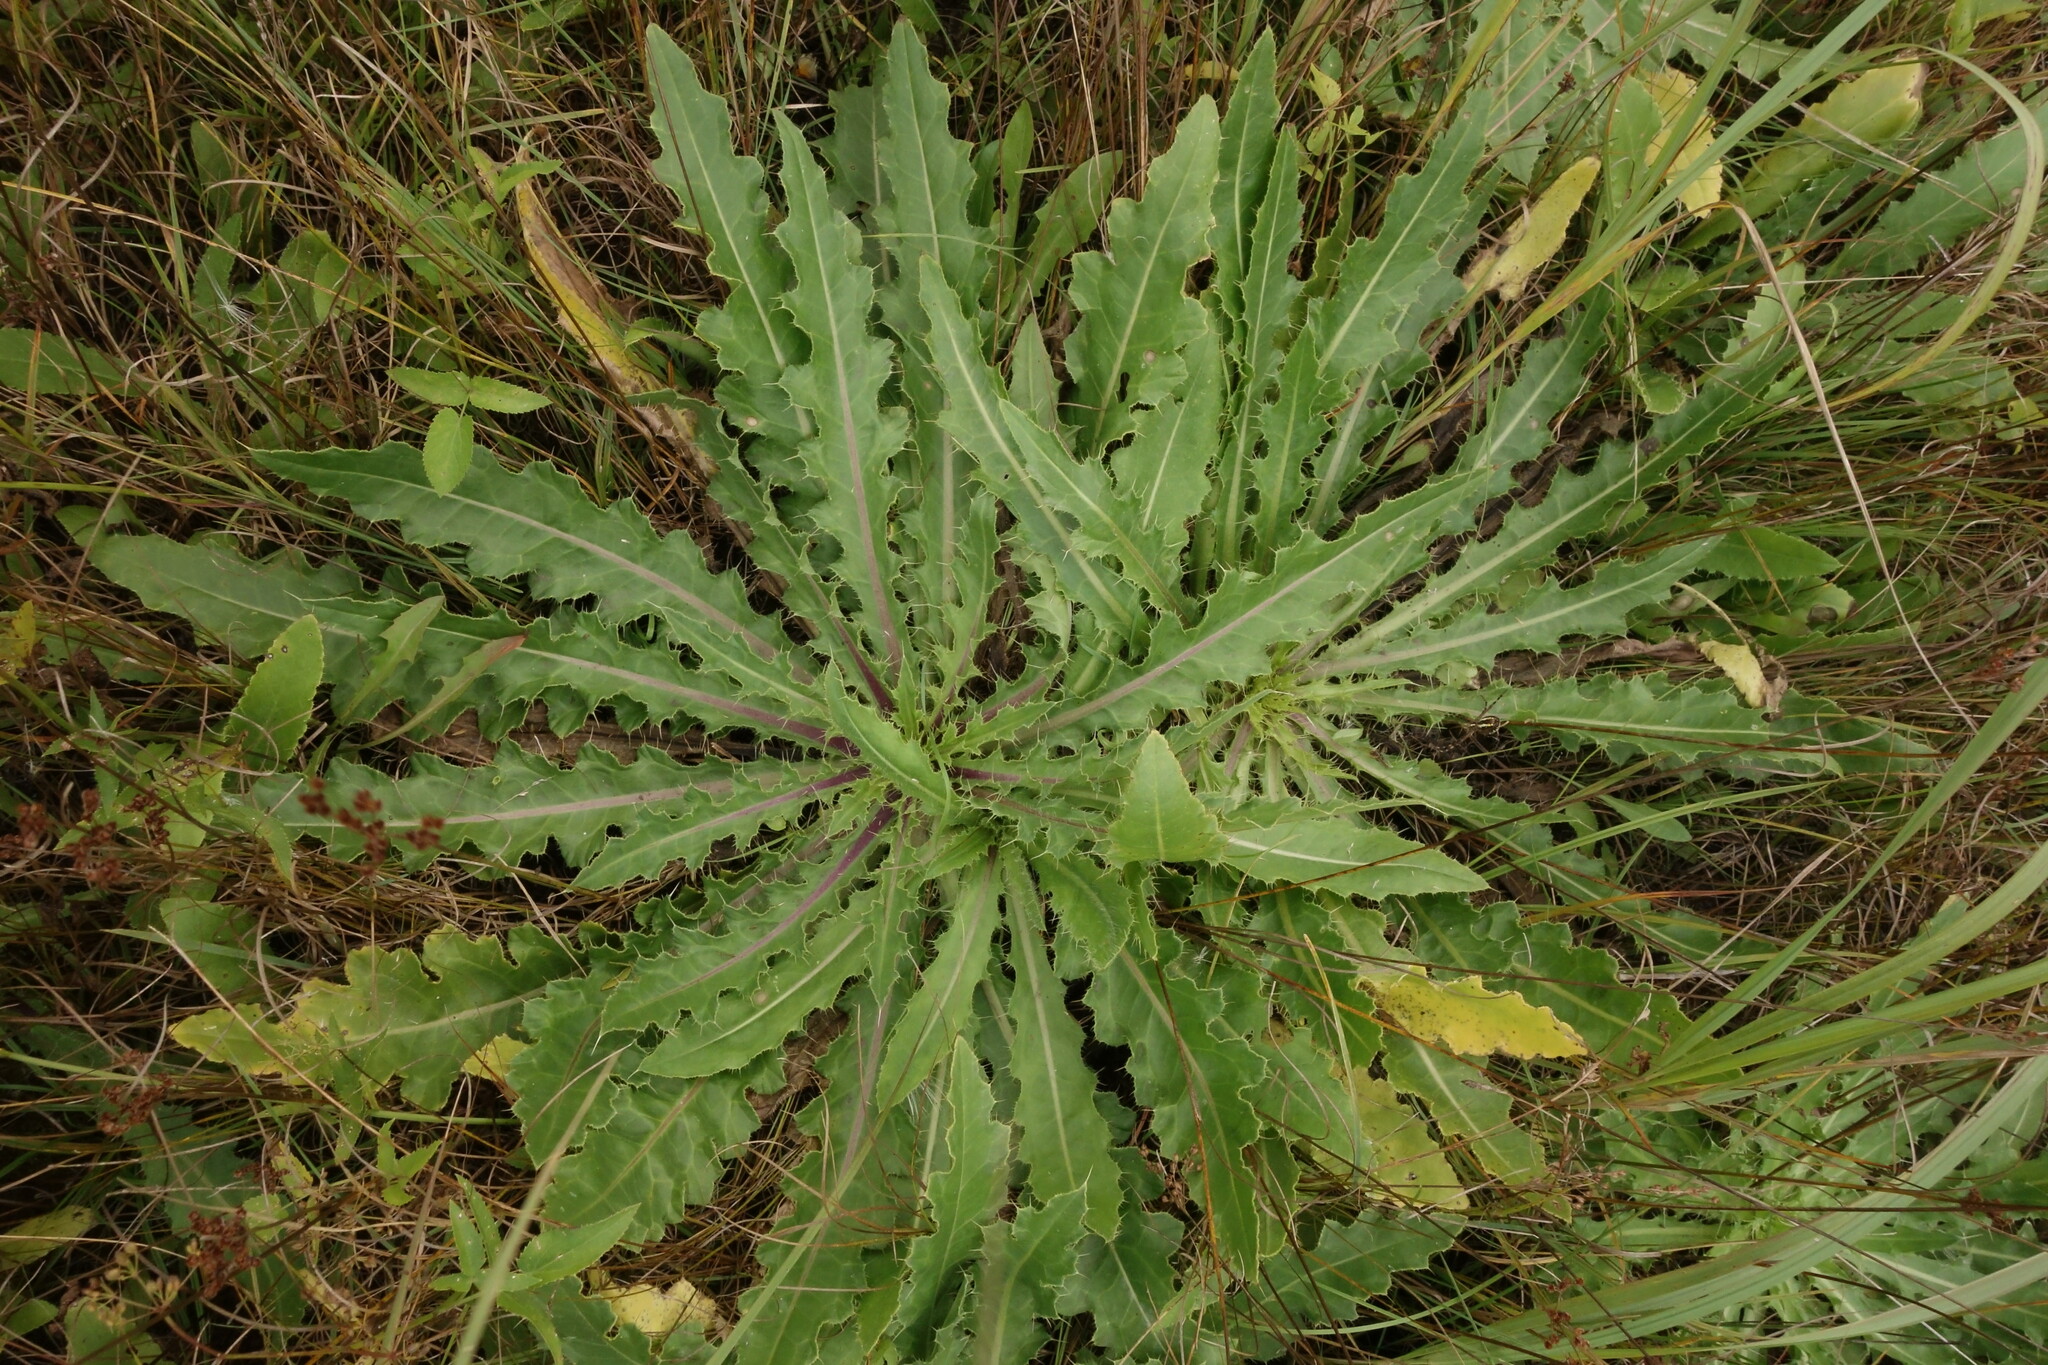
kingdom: Plantae
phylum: Tracheophyta
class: Magnoliopsida
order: Asterales
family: Asteraceae
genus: Cirsium
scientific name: Cirsium esculentum
